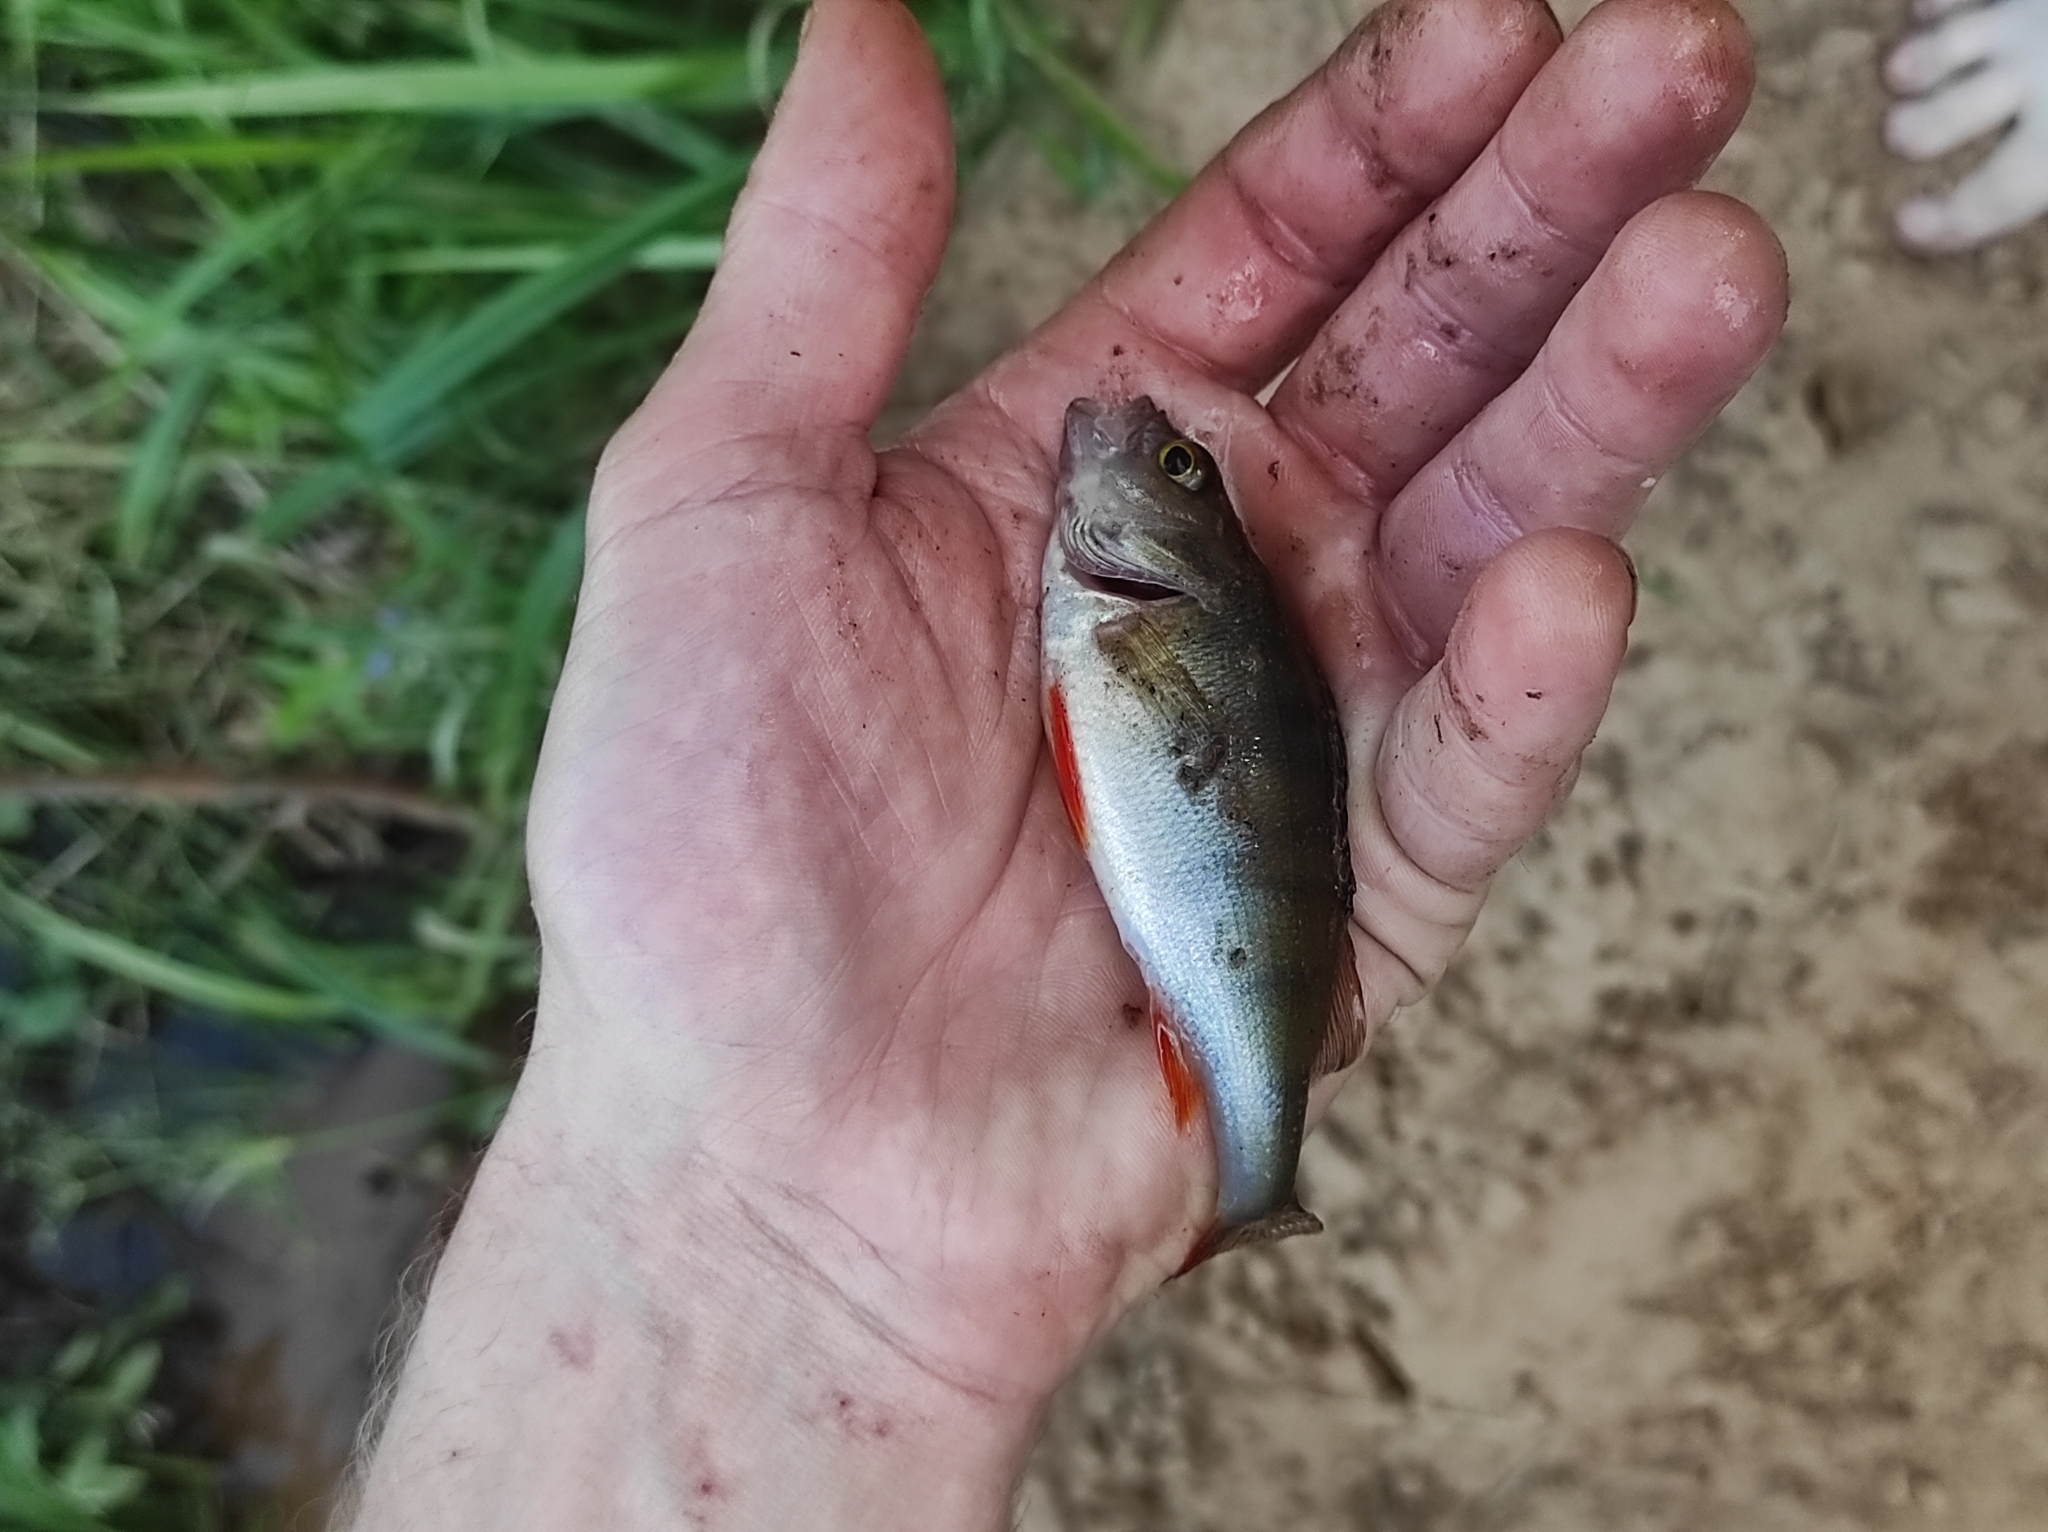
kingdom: Animalia
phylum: Chordata
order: Perciformes
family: Percidae
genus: Perca
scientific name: Perca fluviatilis
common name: Perch
